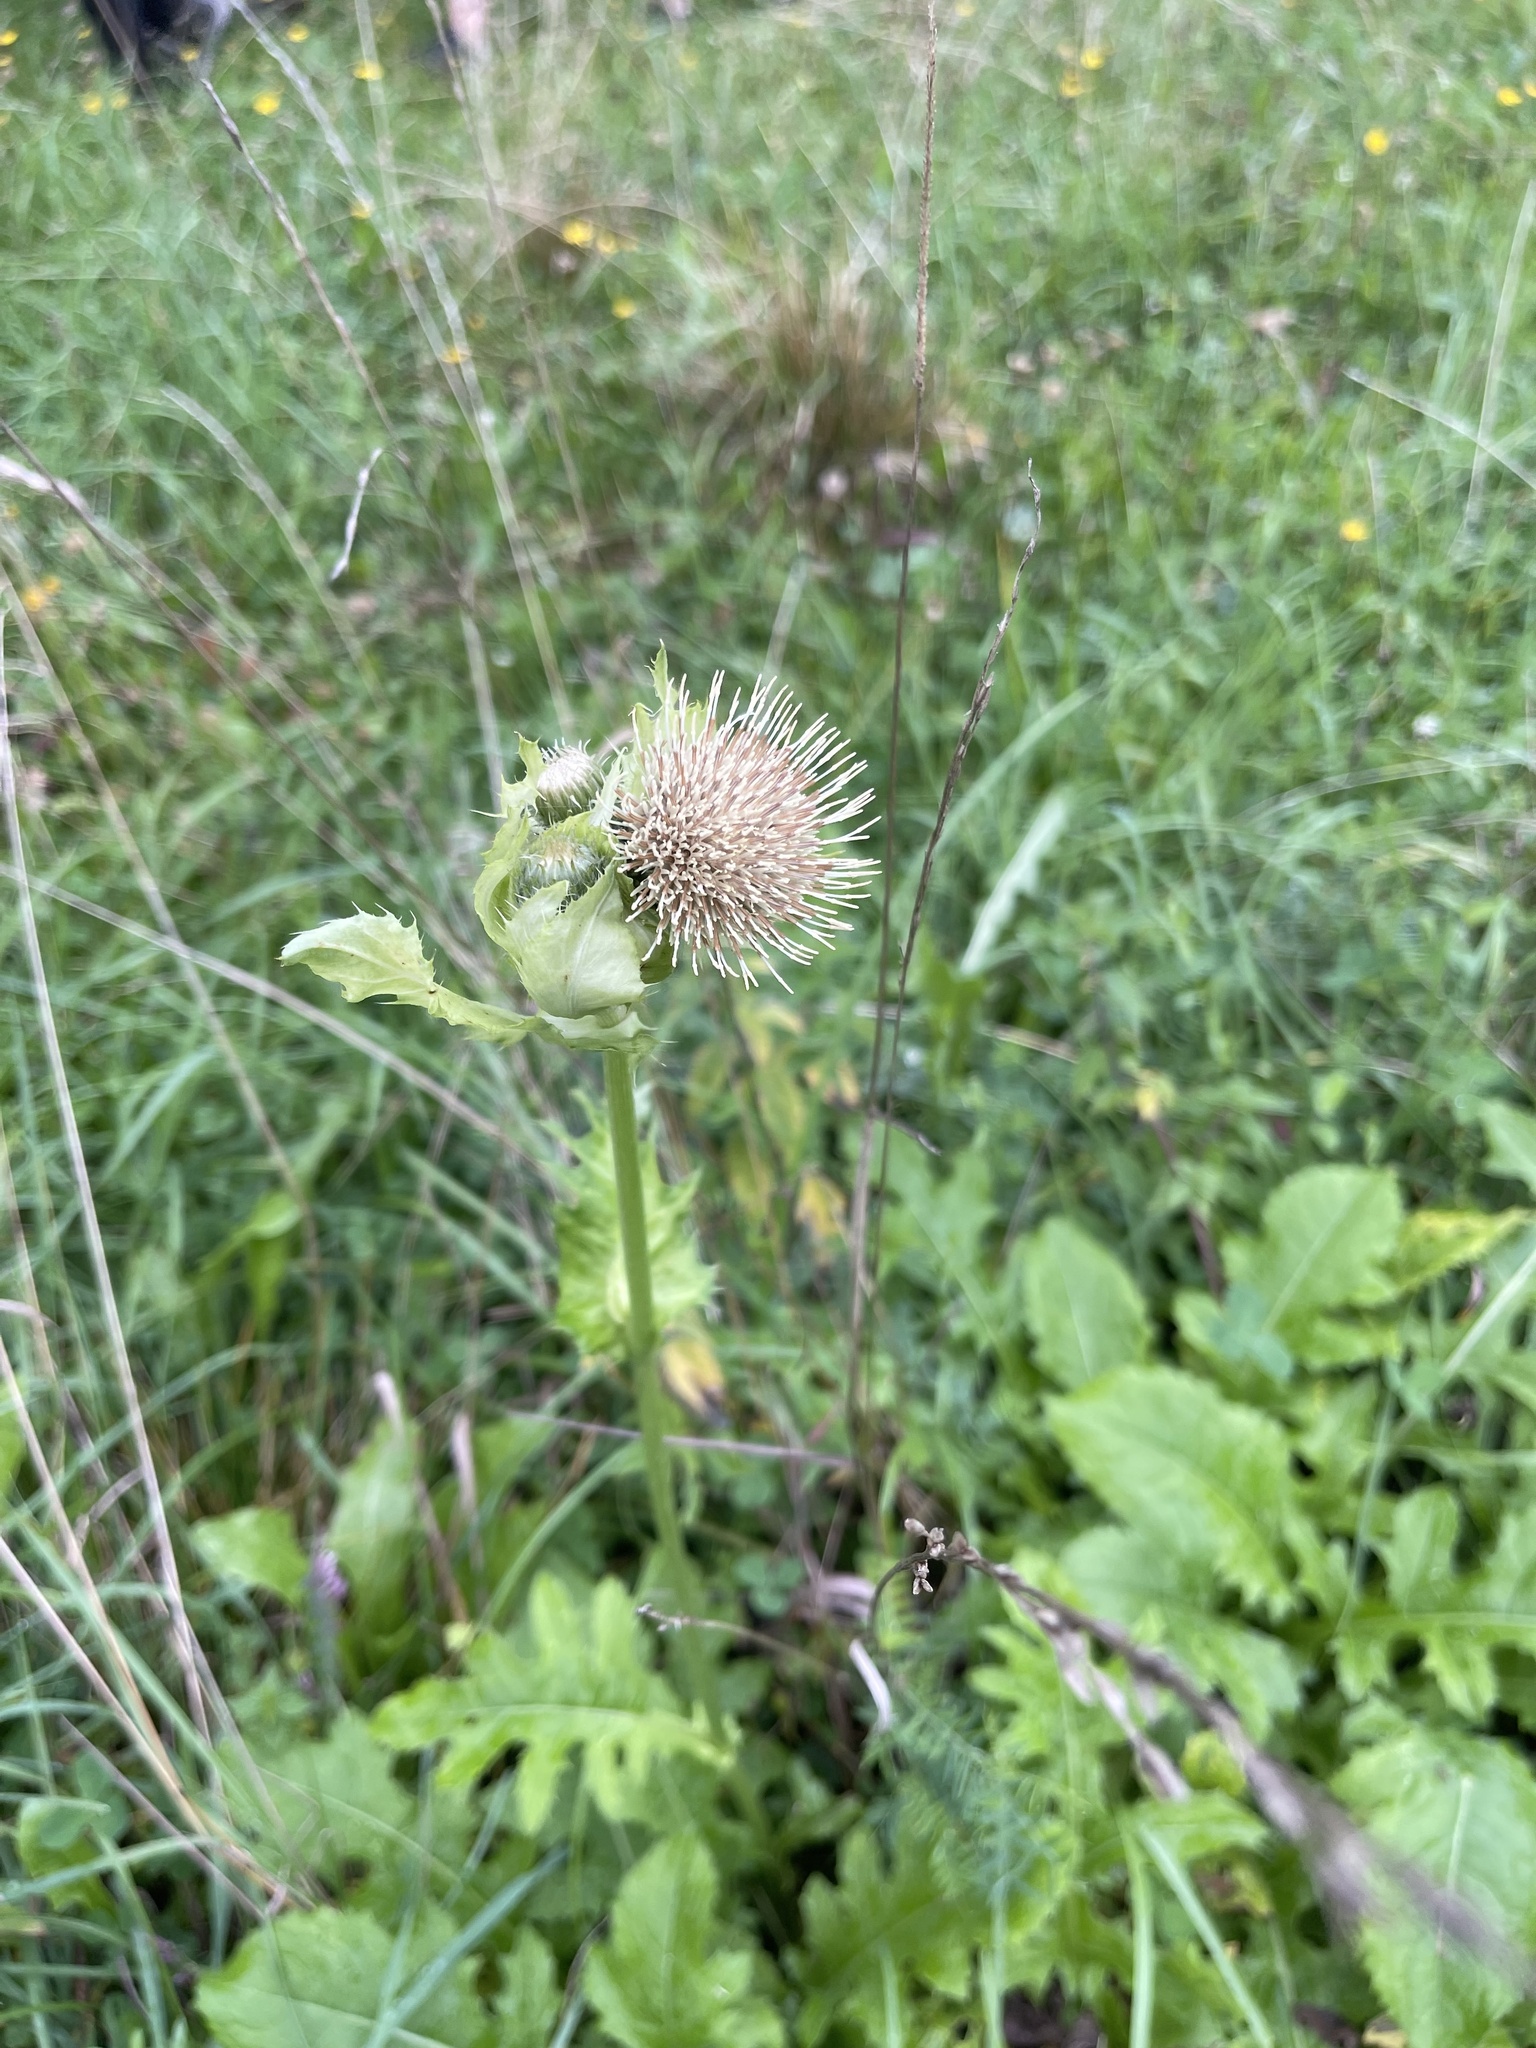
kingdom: Plantae
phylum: Tracheophyta
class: Magnoliopsida
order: Asterales
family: Asteraceae
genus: Cirsium
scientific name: Cirsium oleraceum
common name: Cabbage thistle
